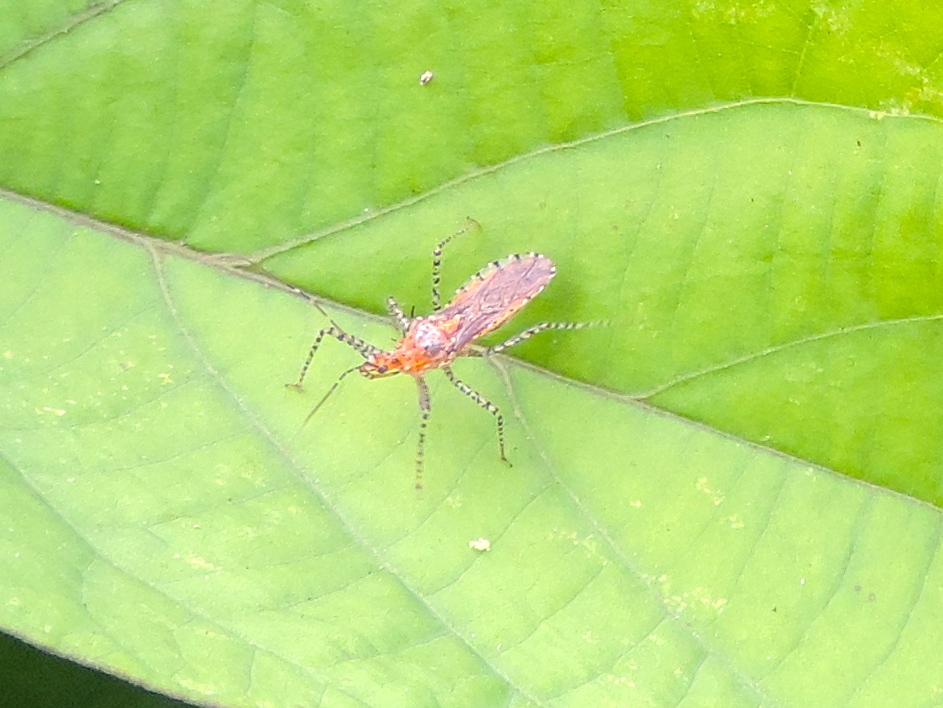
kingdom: Animalia
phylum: Arthropoda
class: Insecta
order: Hemiptera
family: Reduviidae
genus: Pselliopus
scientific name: Pselliopus
